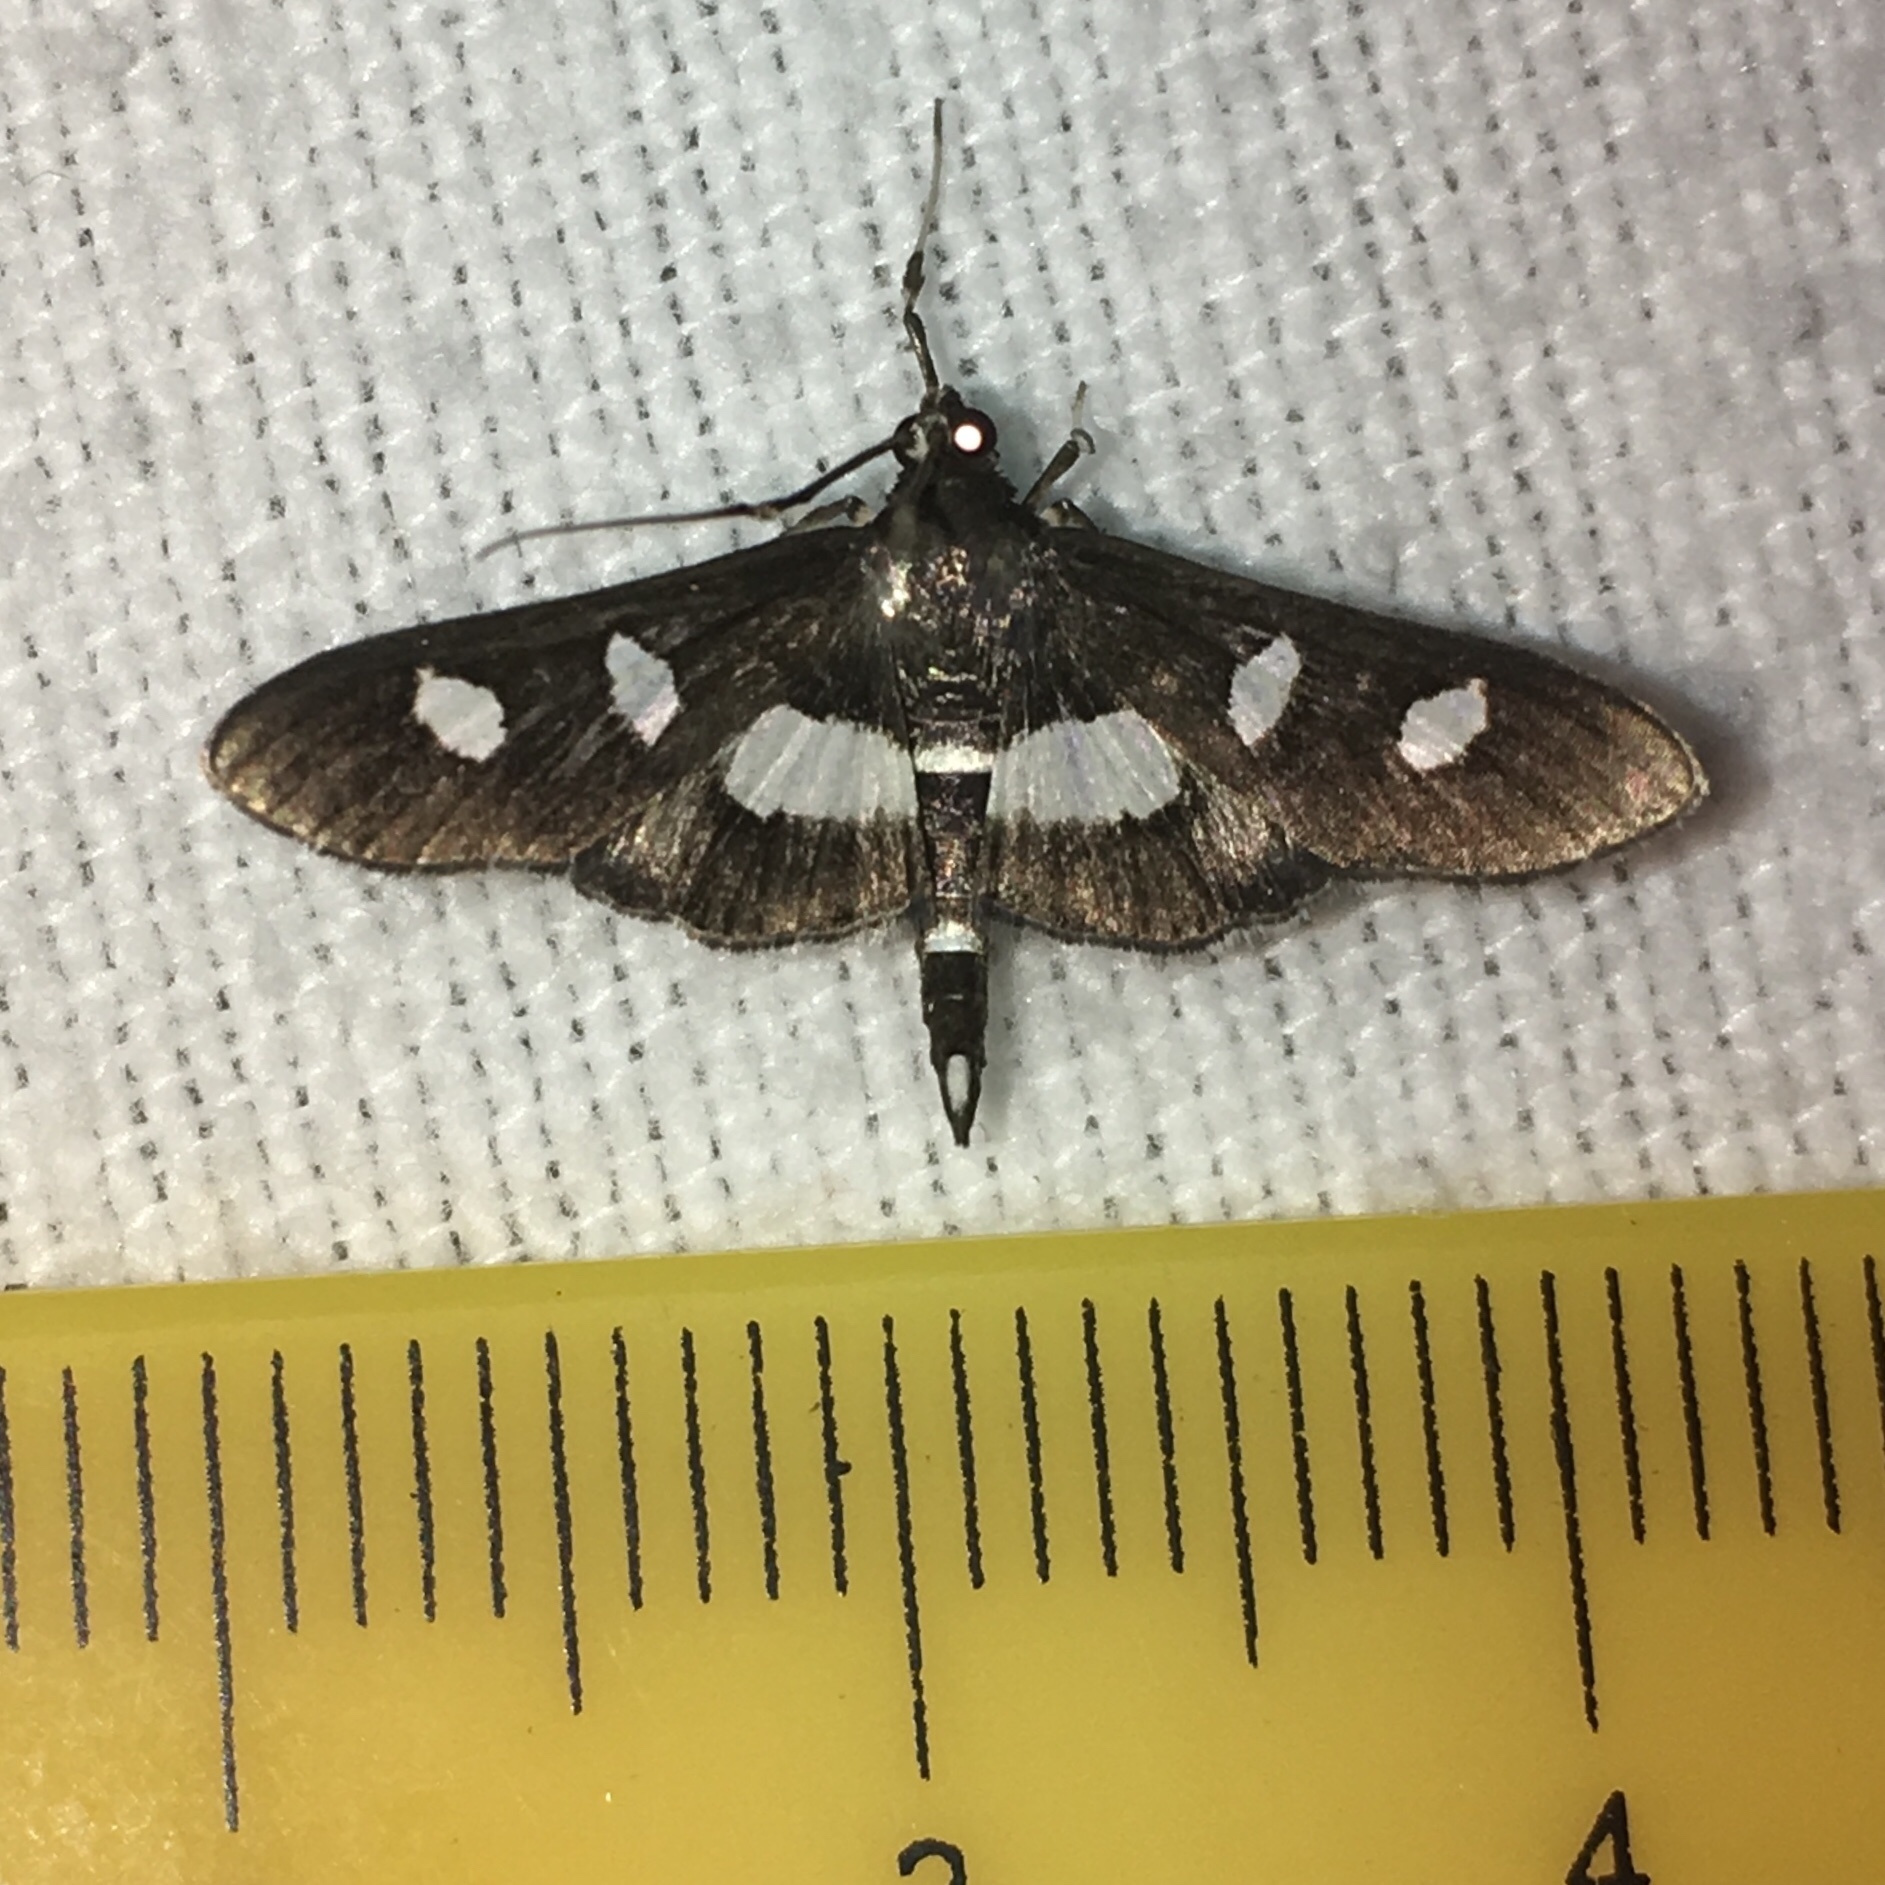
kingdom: Animalia
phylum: Arthropoda
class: Insecta
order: Lepidoptera
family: Crambidae
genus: Desmia
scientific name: Desmia
